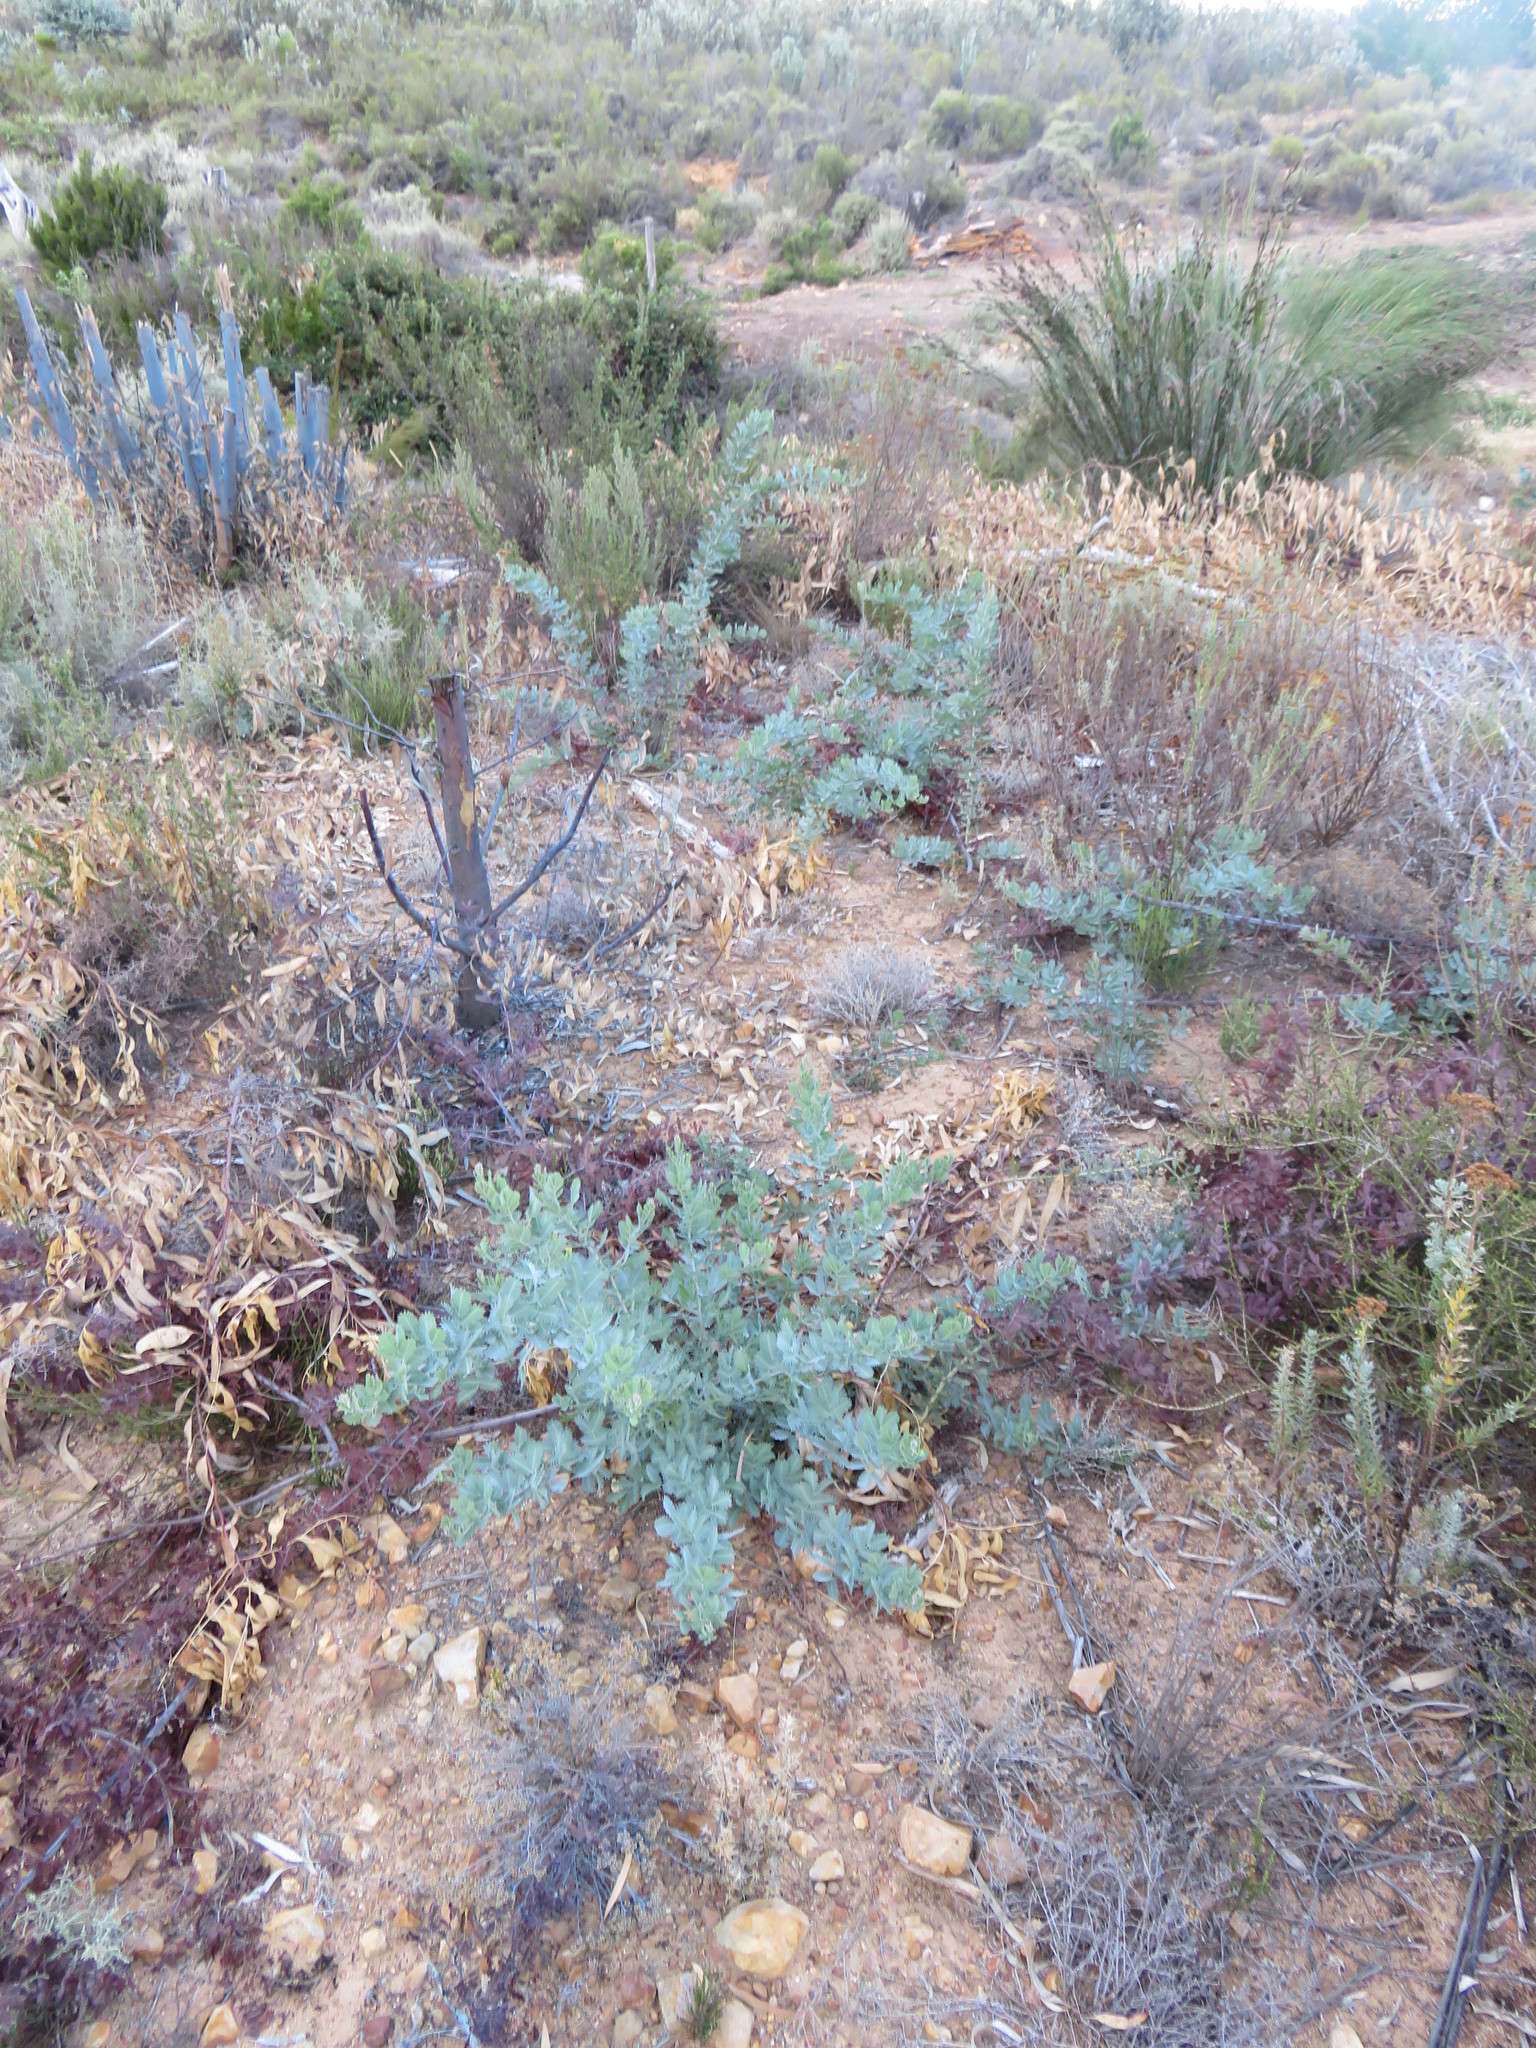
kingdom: Plantae
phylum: Tracheophyta
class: Magnoliopsida
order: Fabales
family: Fabaceae
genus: Acacia
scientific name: Acacia baileyana
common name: Cootamundra wattle
